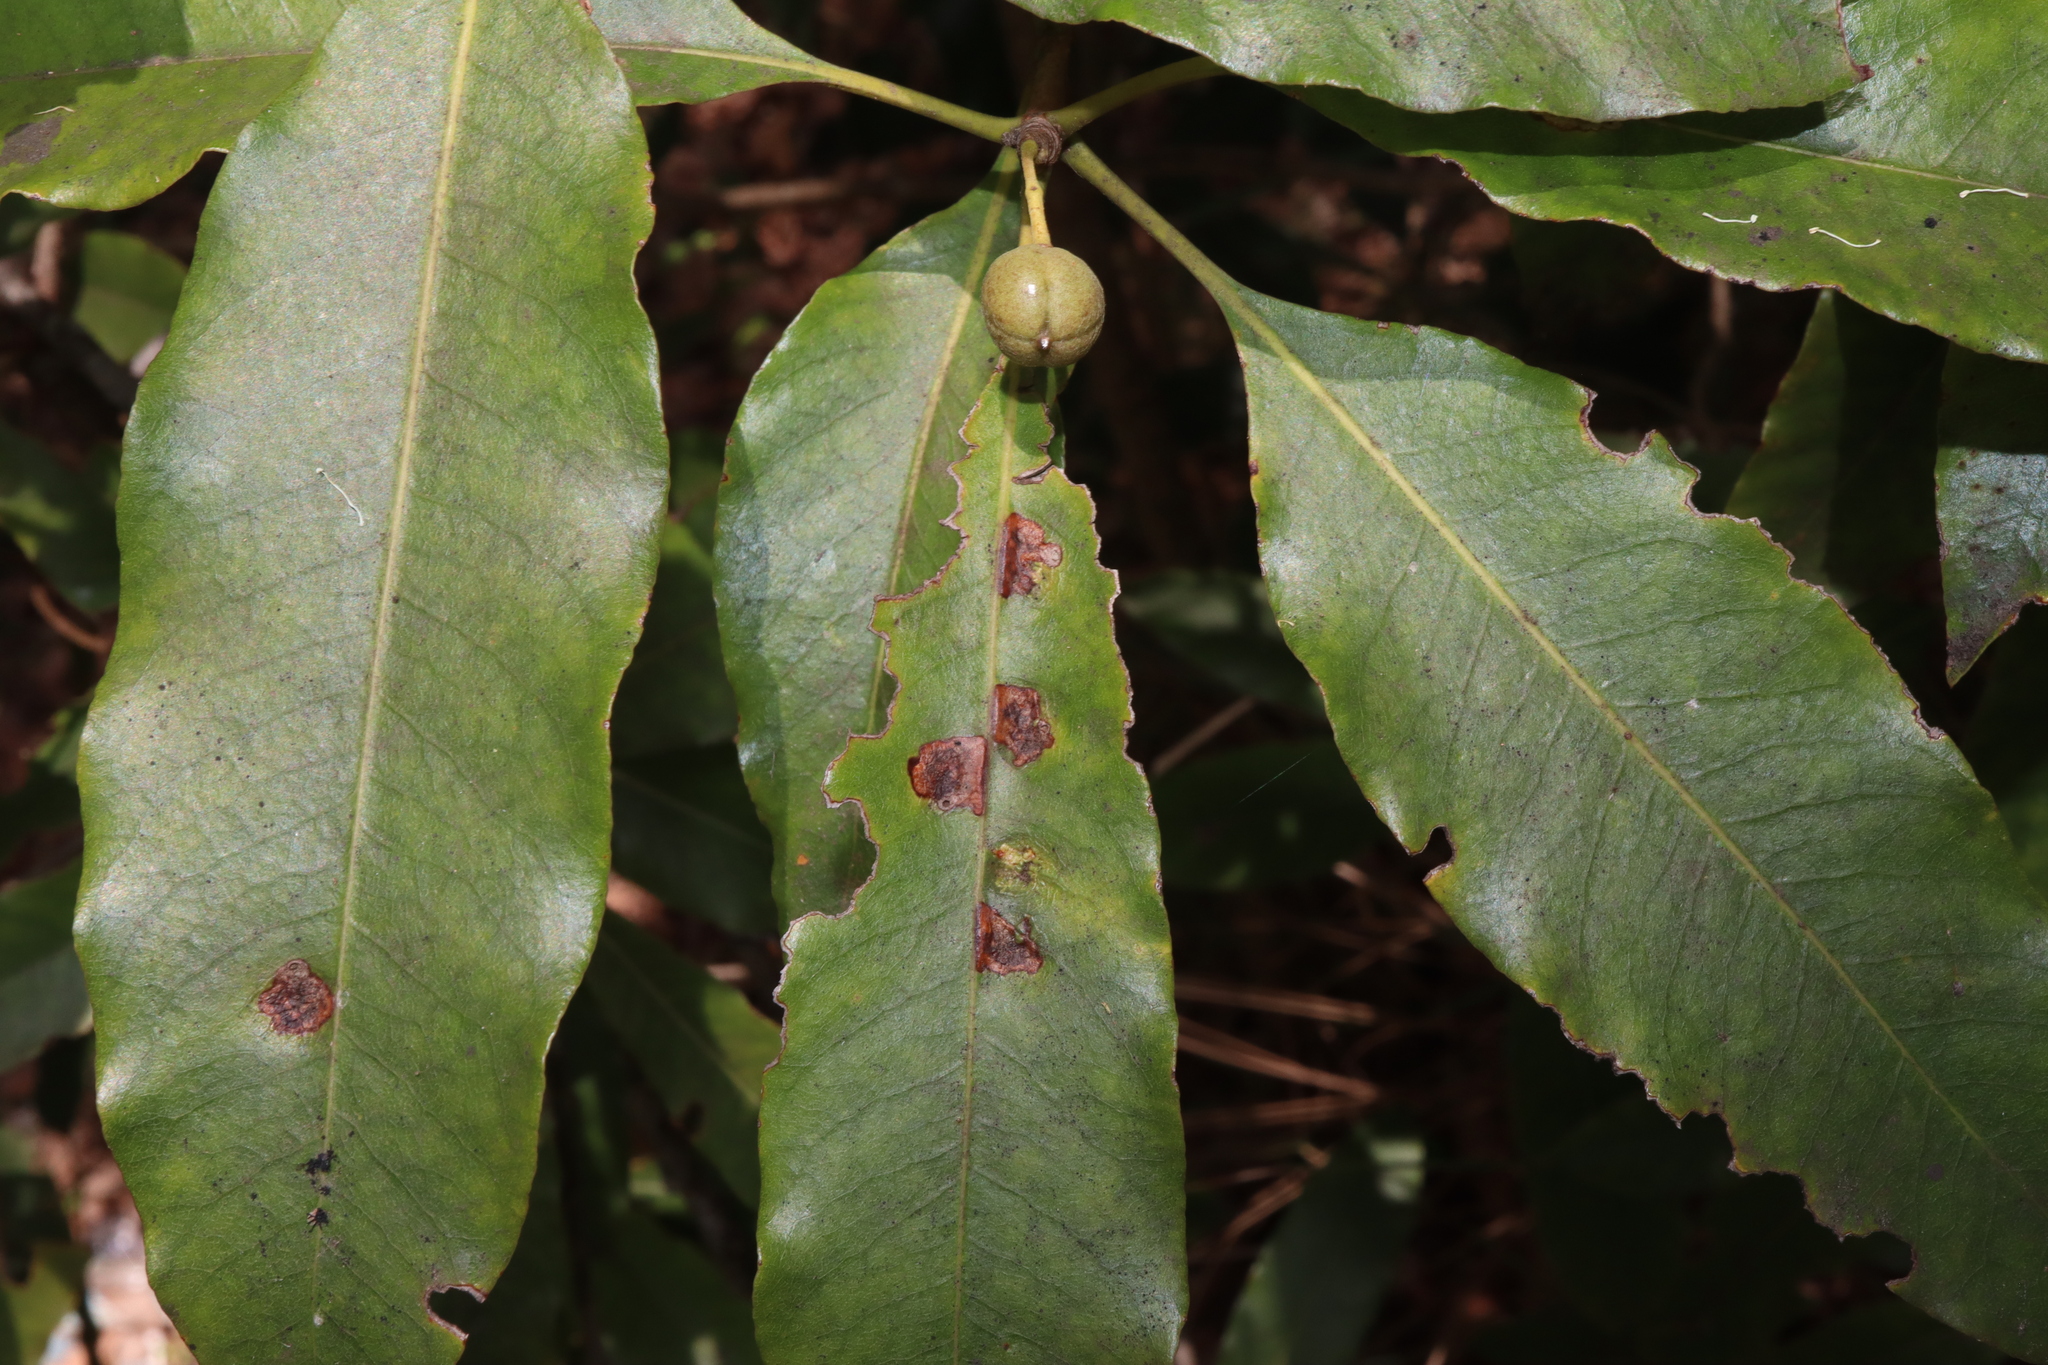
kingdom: Animalia
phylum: Arthropoda
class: Insecta
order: Diptera
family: Agromyzidae
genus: Phytoliriomyza
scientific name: Phytoliriomyza pittosporophylli
